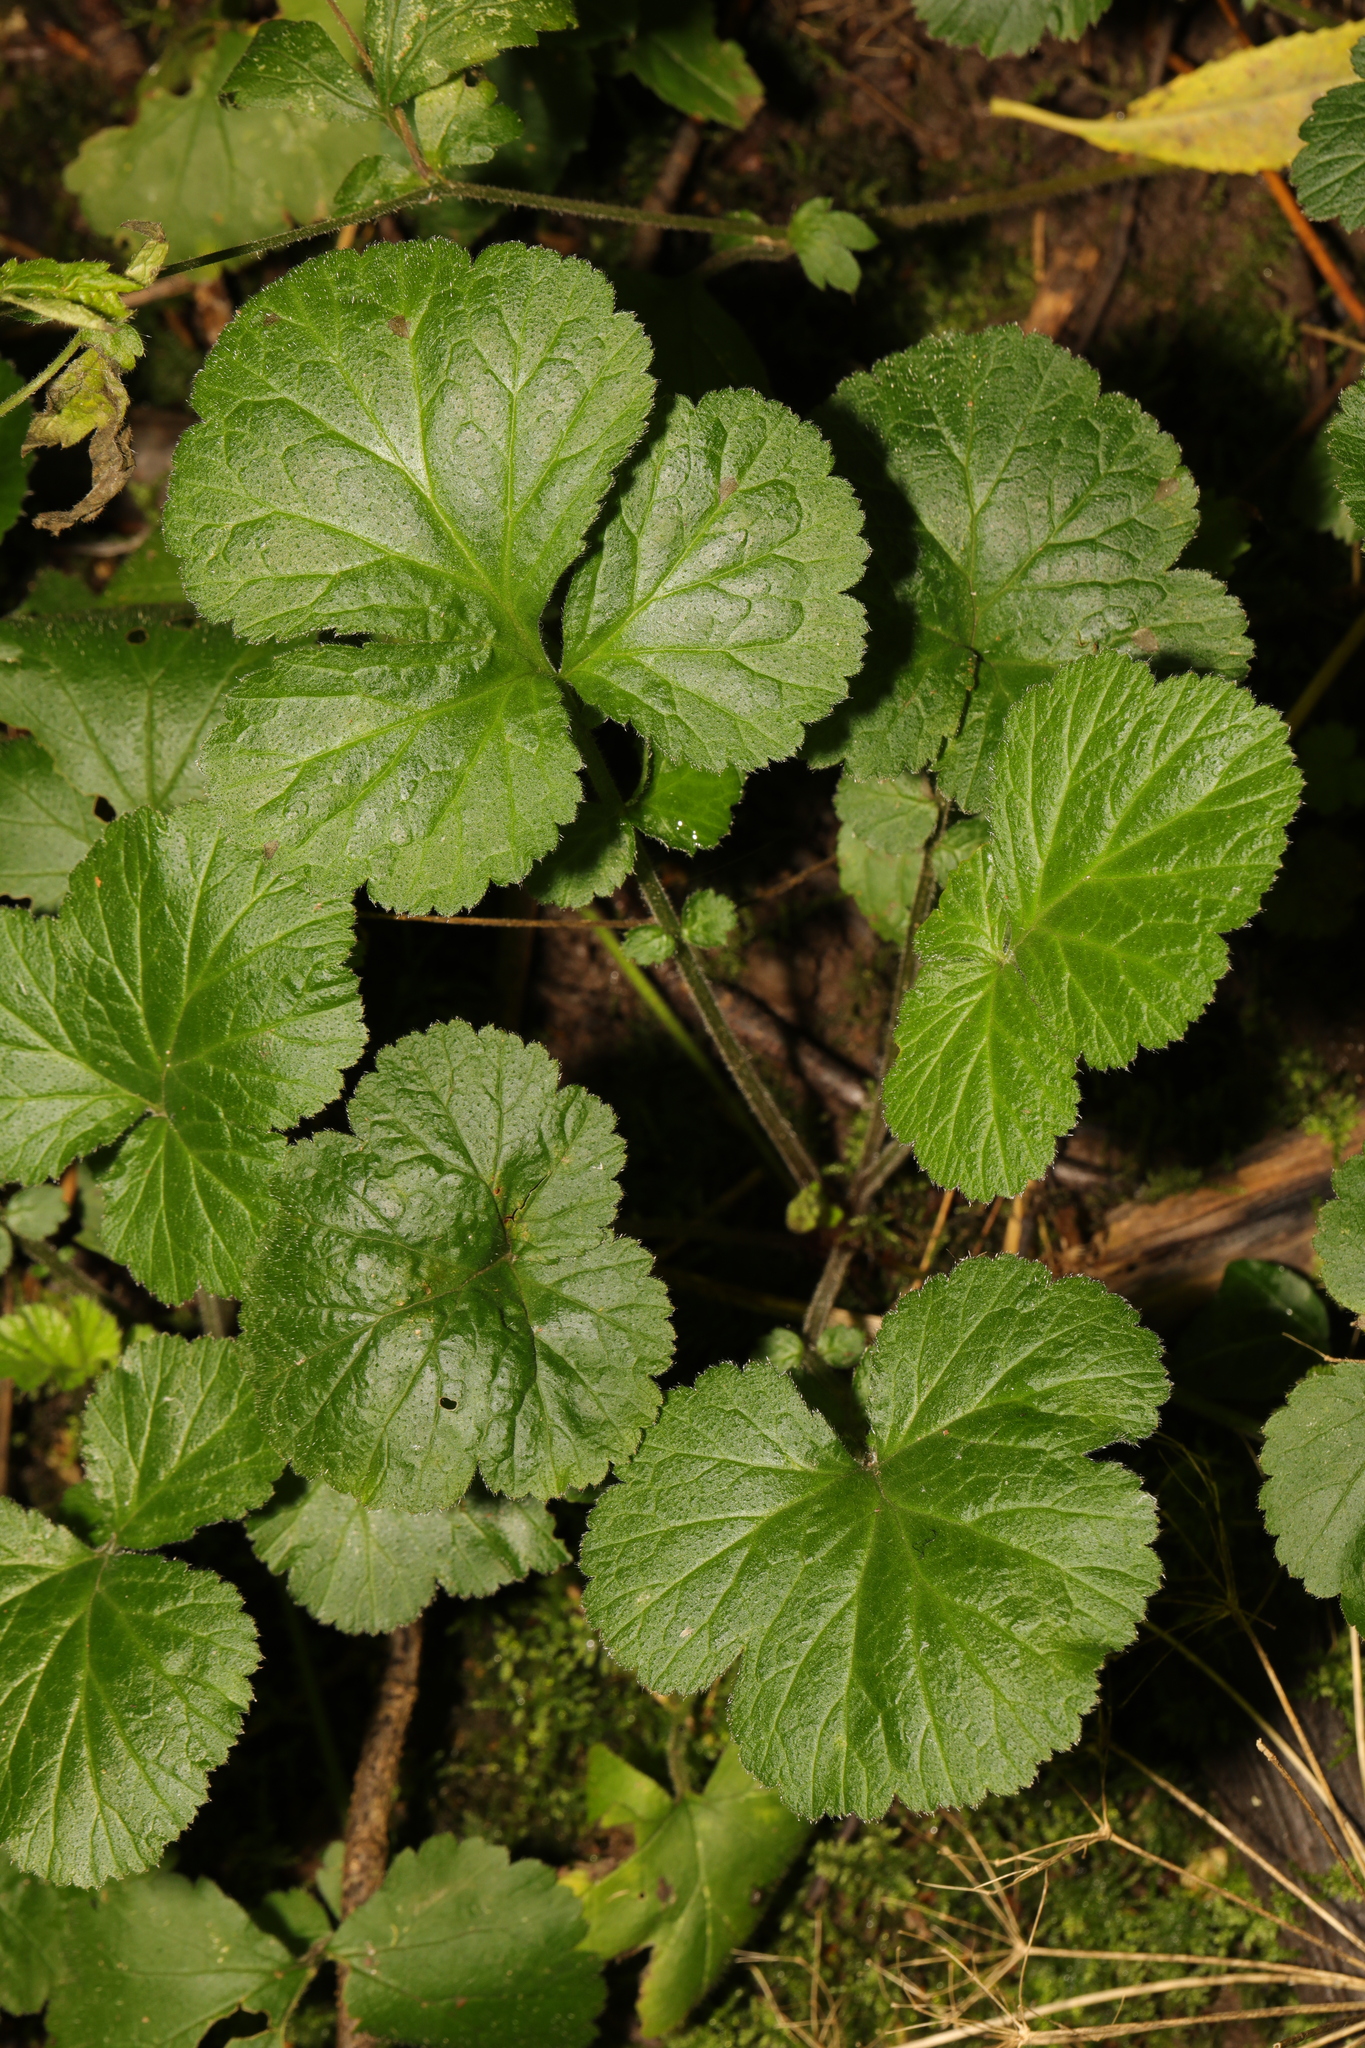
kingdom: Plantae
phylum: Tracheophyta
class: Magnoliopsida
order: Rosales
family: Rosaceae
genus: Geum
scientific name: Geum urbanum
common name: Wood avens
